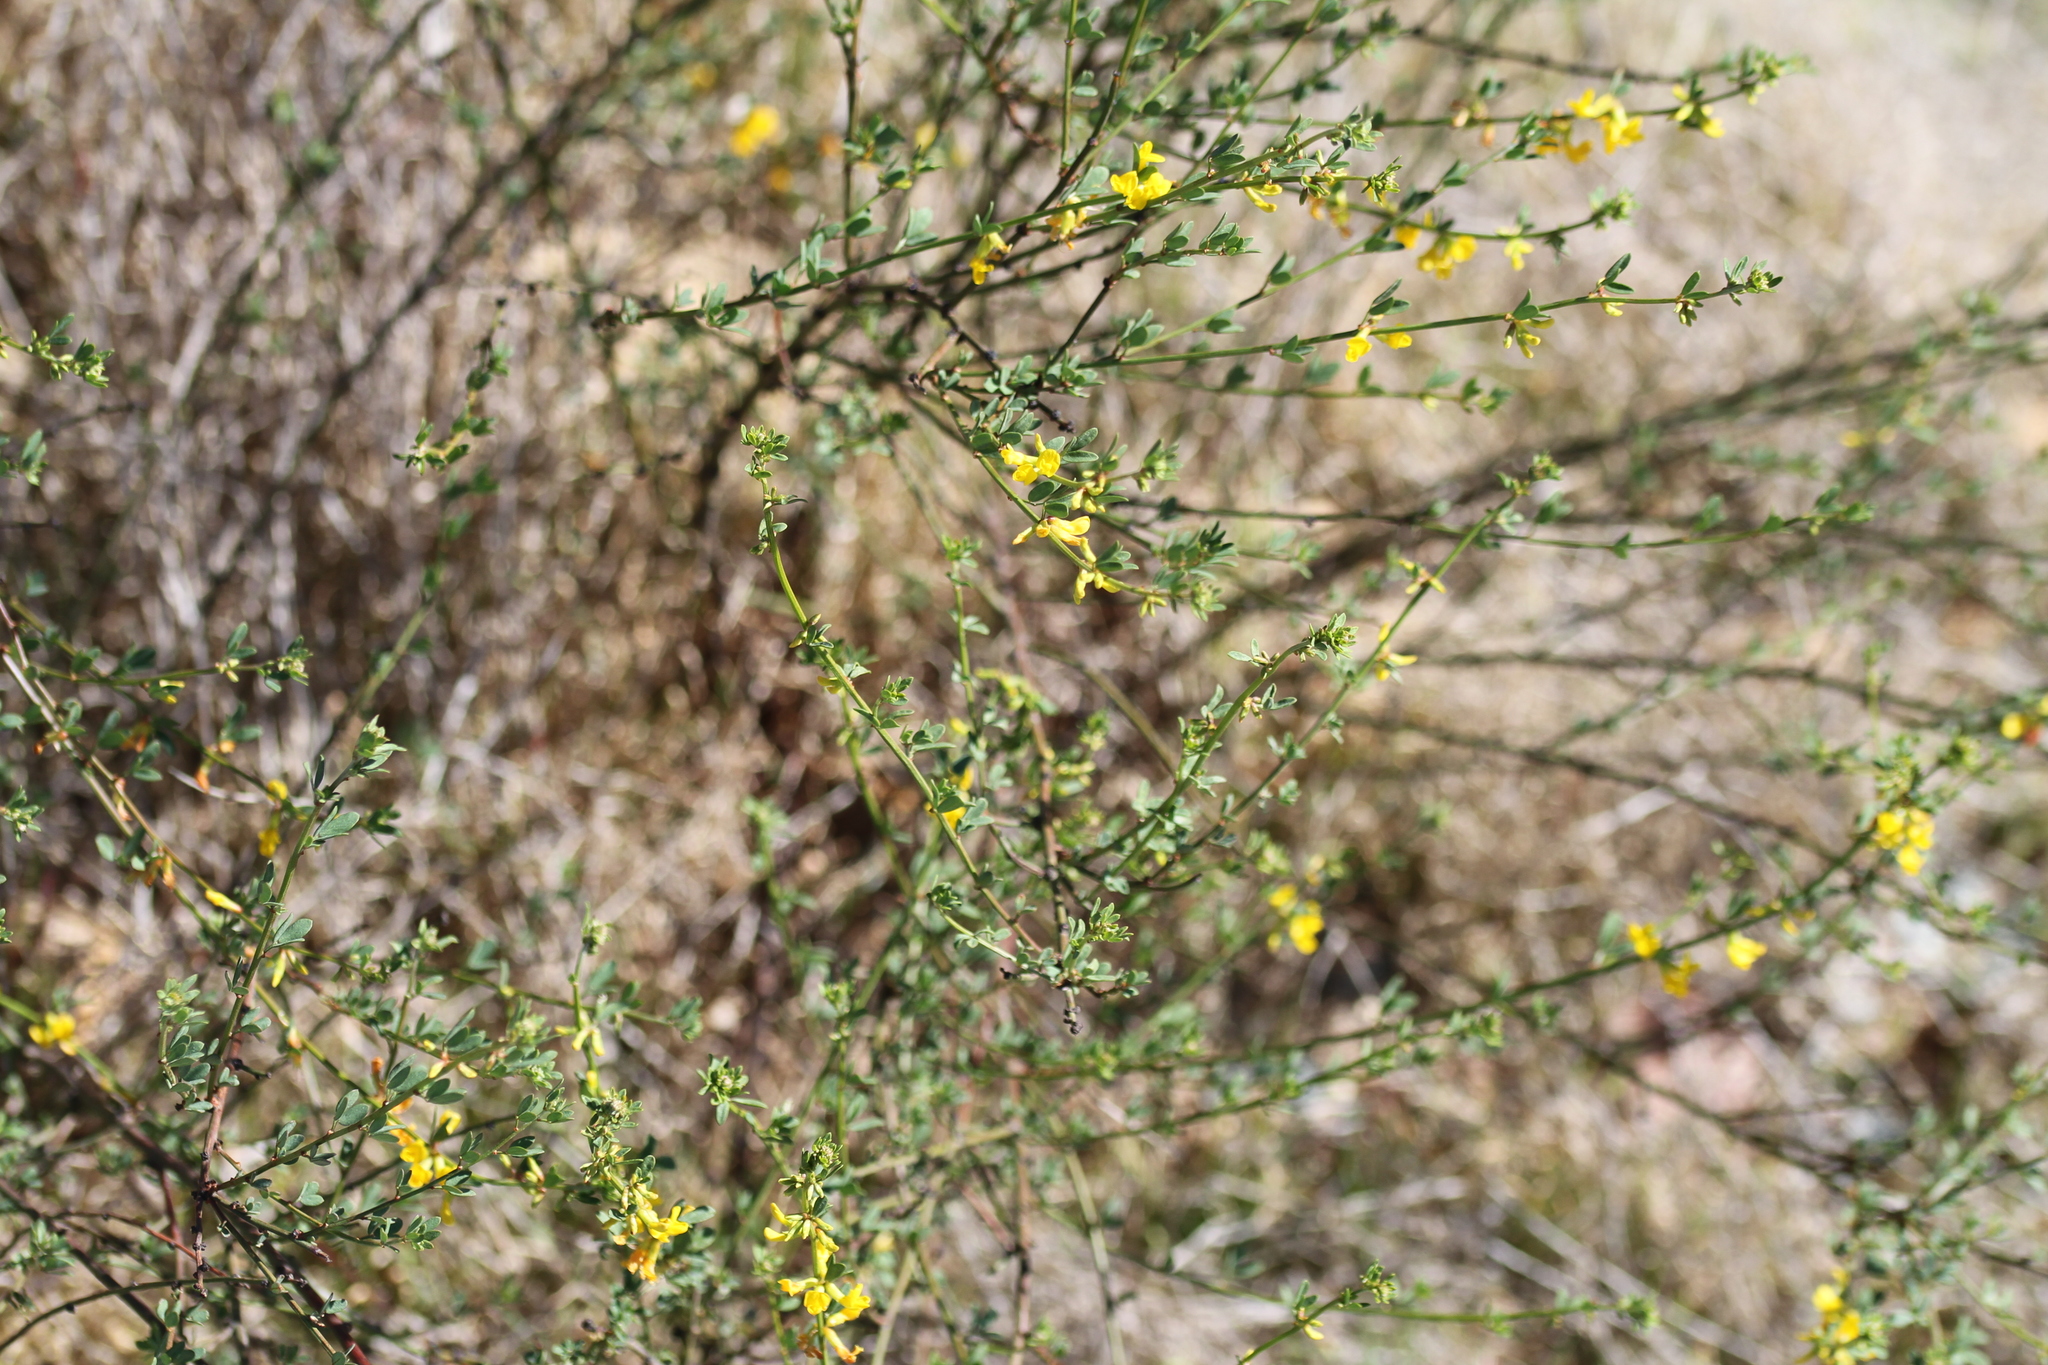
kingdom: Plantae
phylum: Tracheophyta
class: Magnoliopsida
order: Fabales
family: Fabaceae
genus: Acmispon
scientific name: Acmispon glaber
